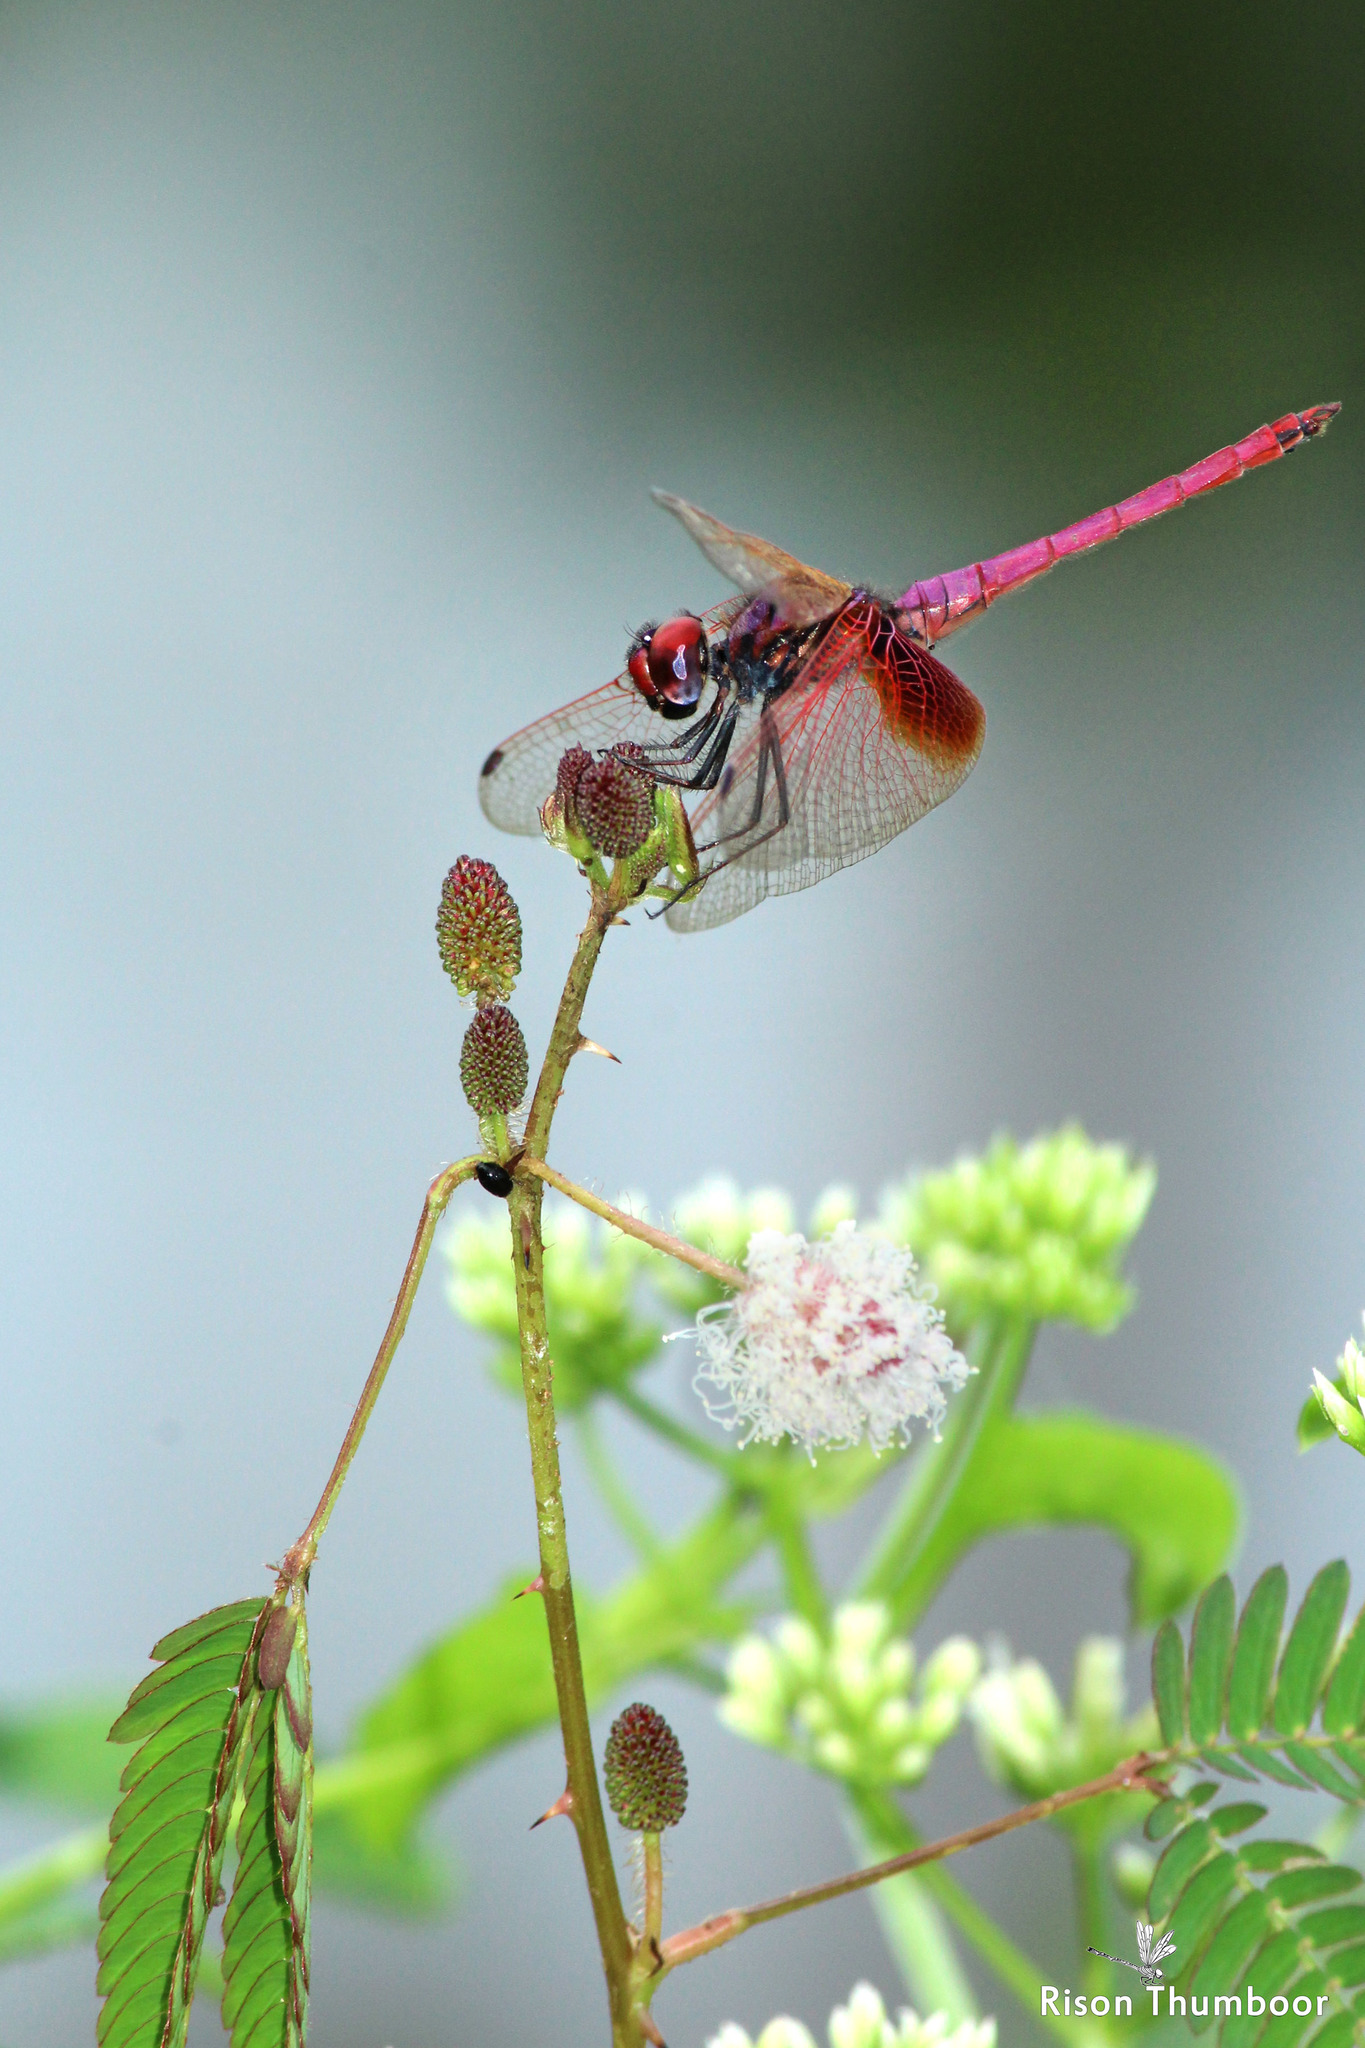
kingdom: Animalia
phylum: Arthropoda
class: Insecta
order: Odonata
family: Libellulidae
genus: Trithemis
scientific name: Trithemis aurora
